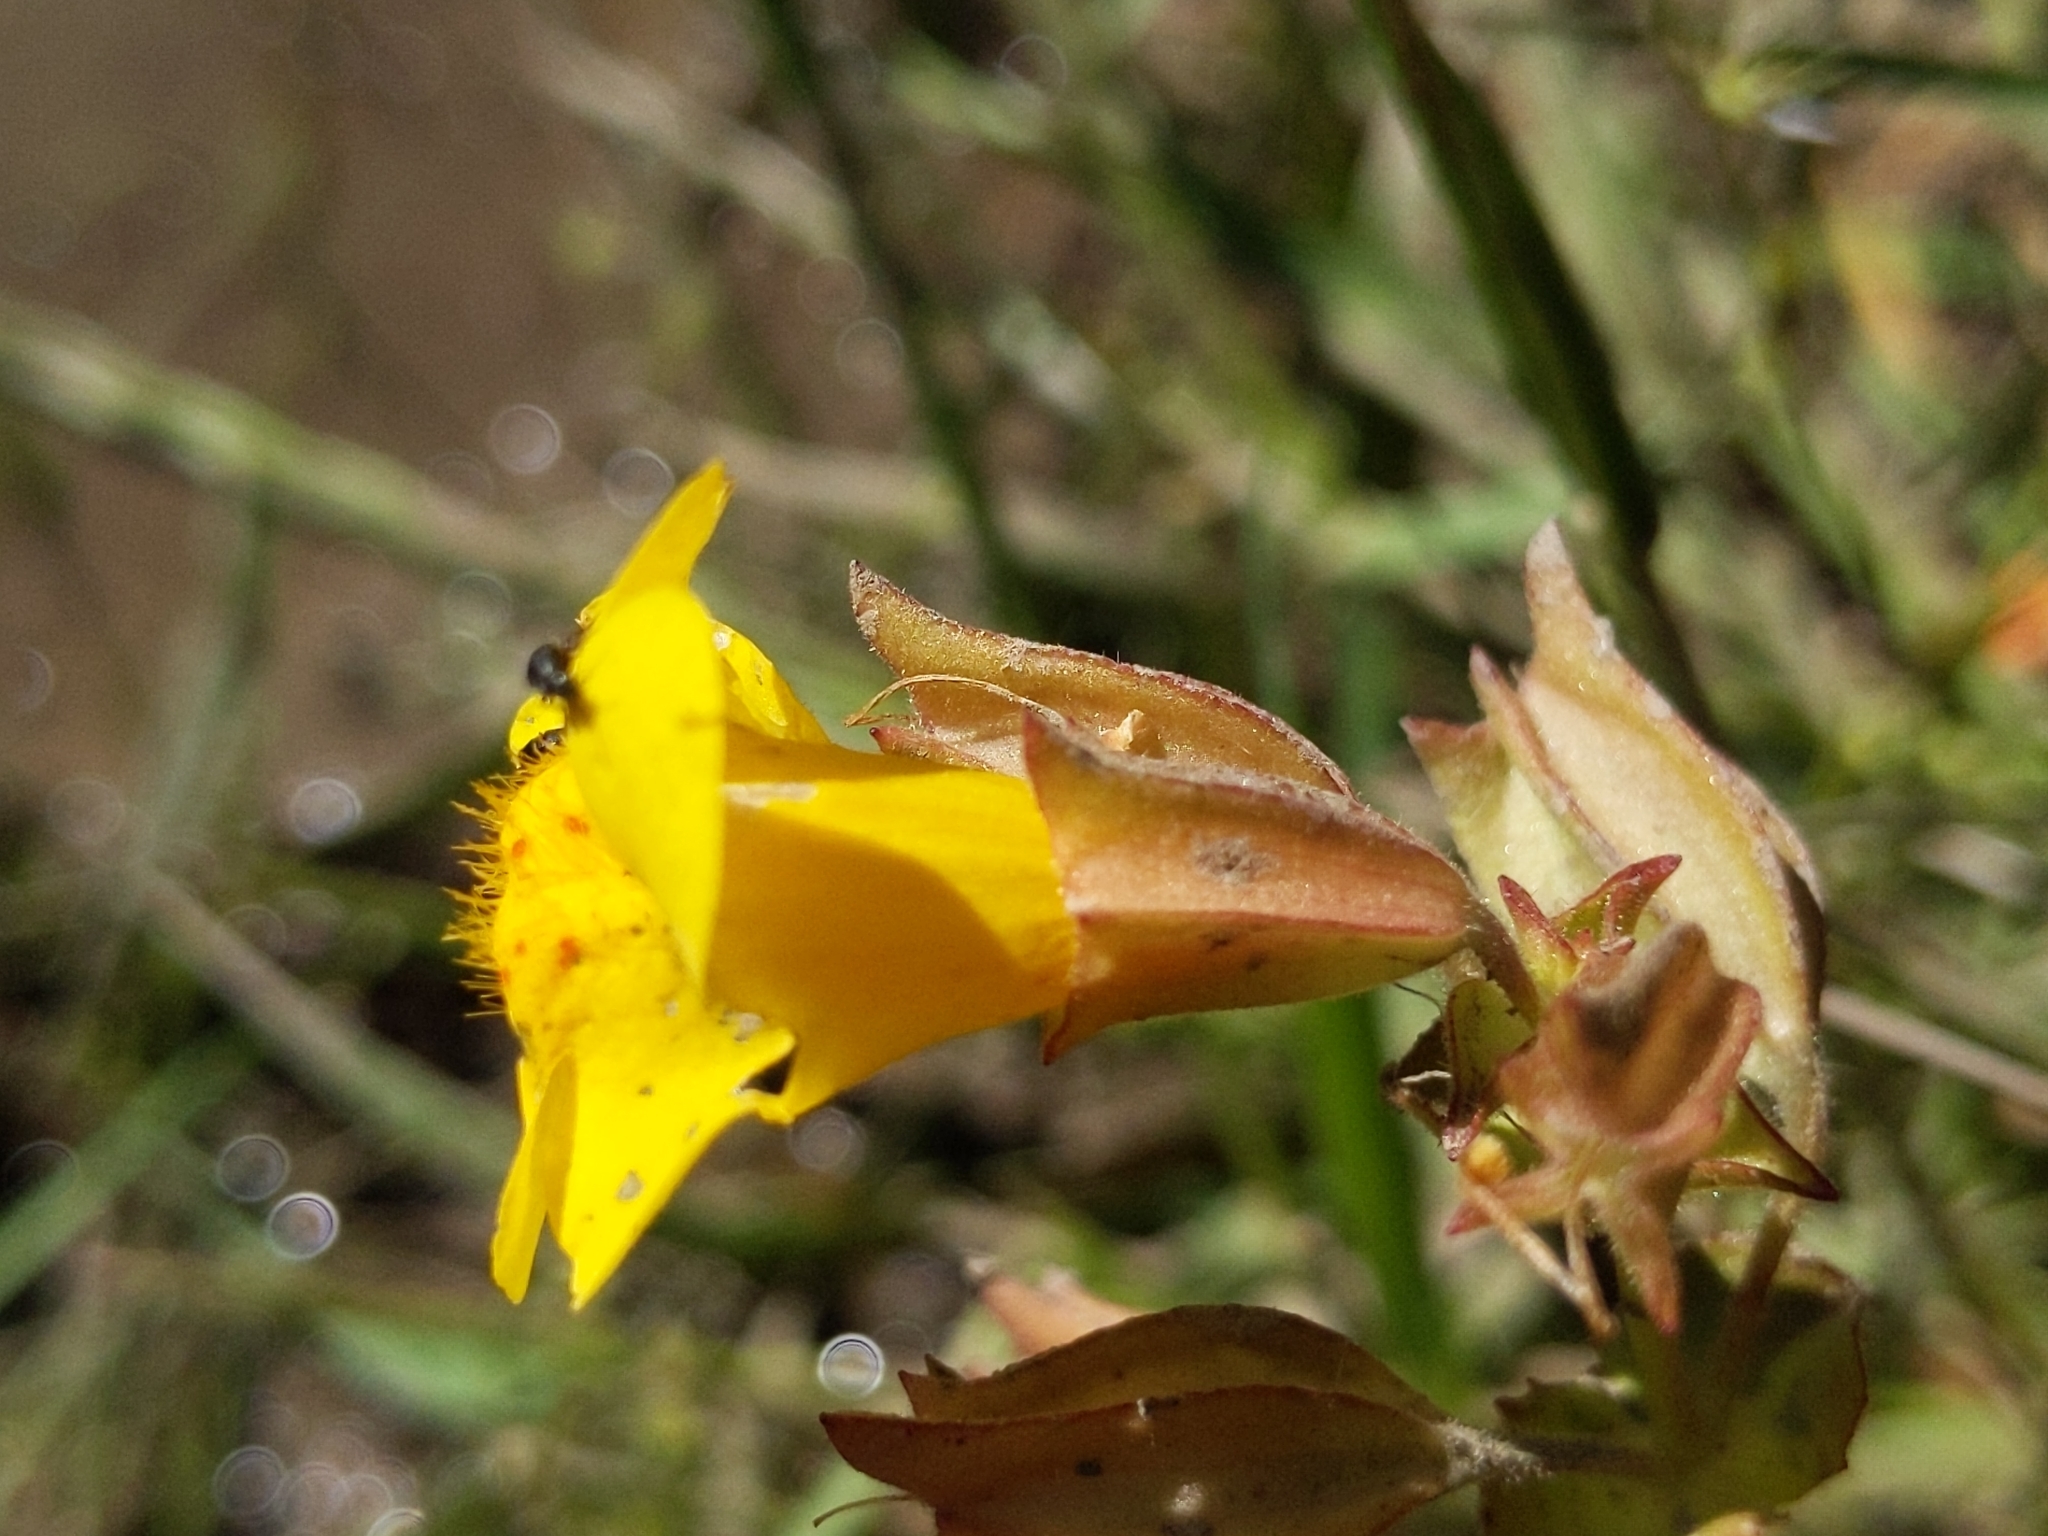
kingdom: Plantae
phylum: Tracheophyta
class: Magnoliopsida
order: Lamiales
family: Phrymaceae
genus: Erythranthe
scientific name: Erythranthe guttata
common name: Monkeyflower
